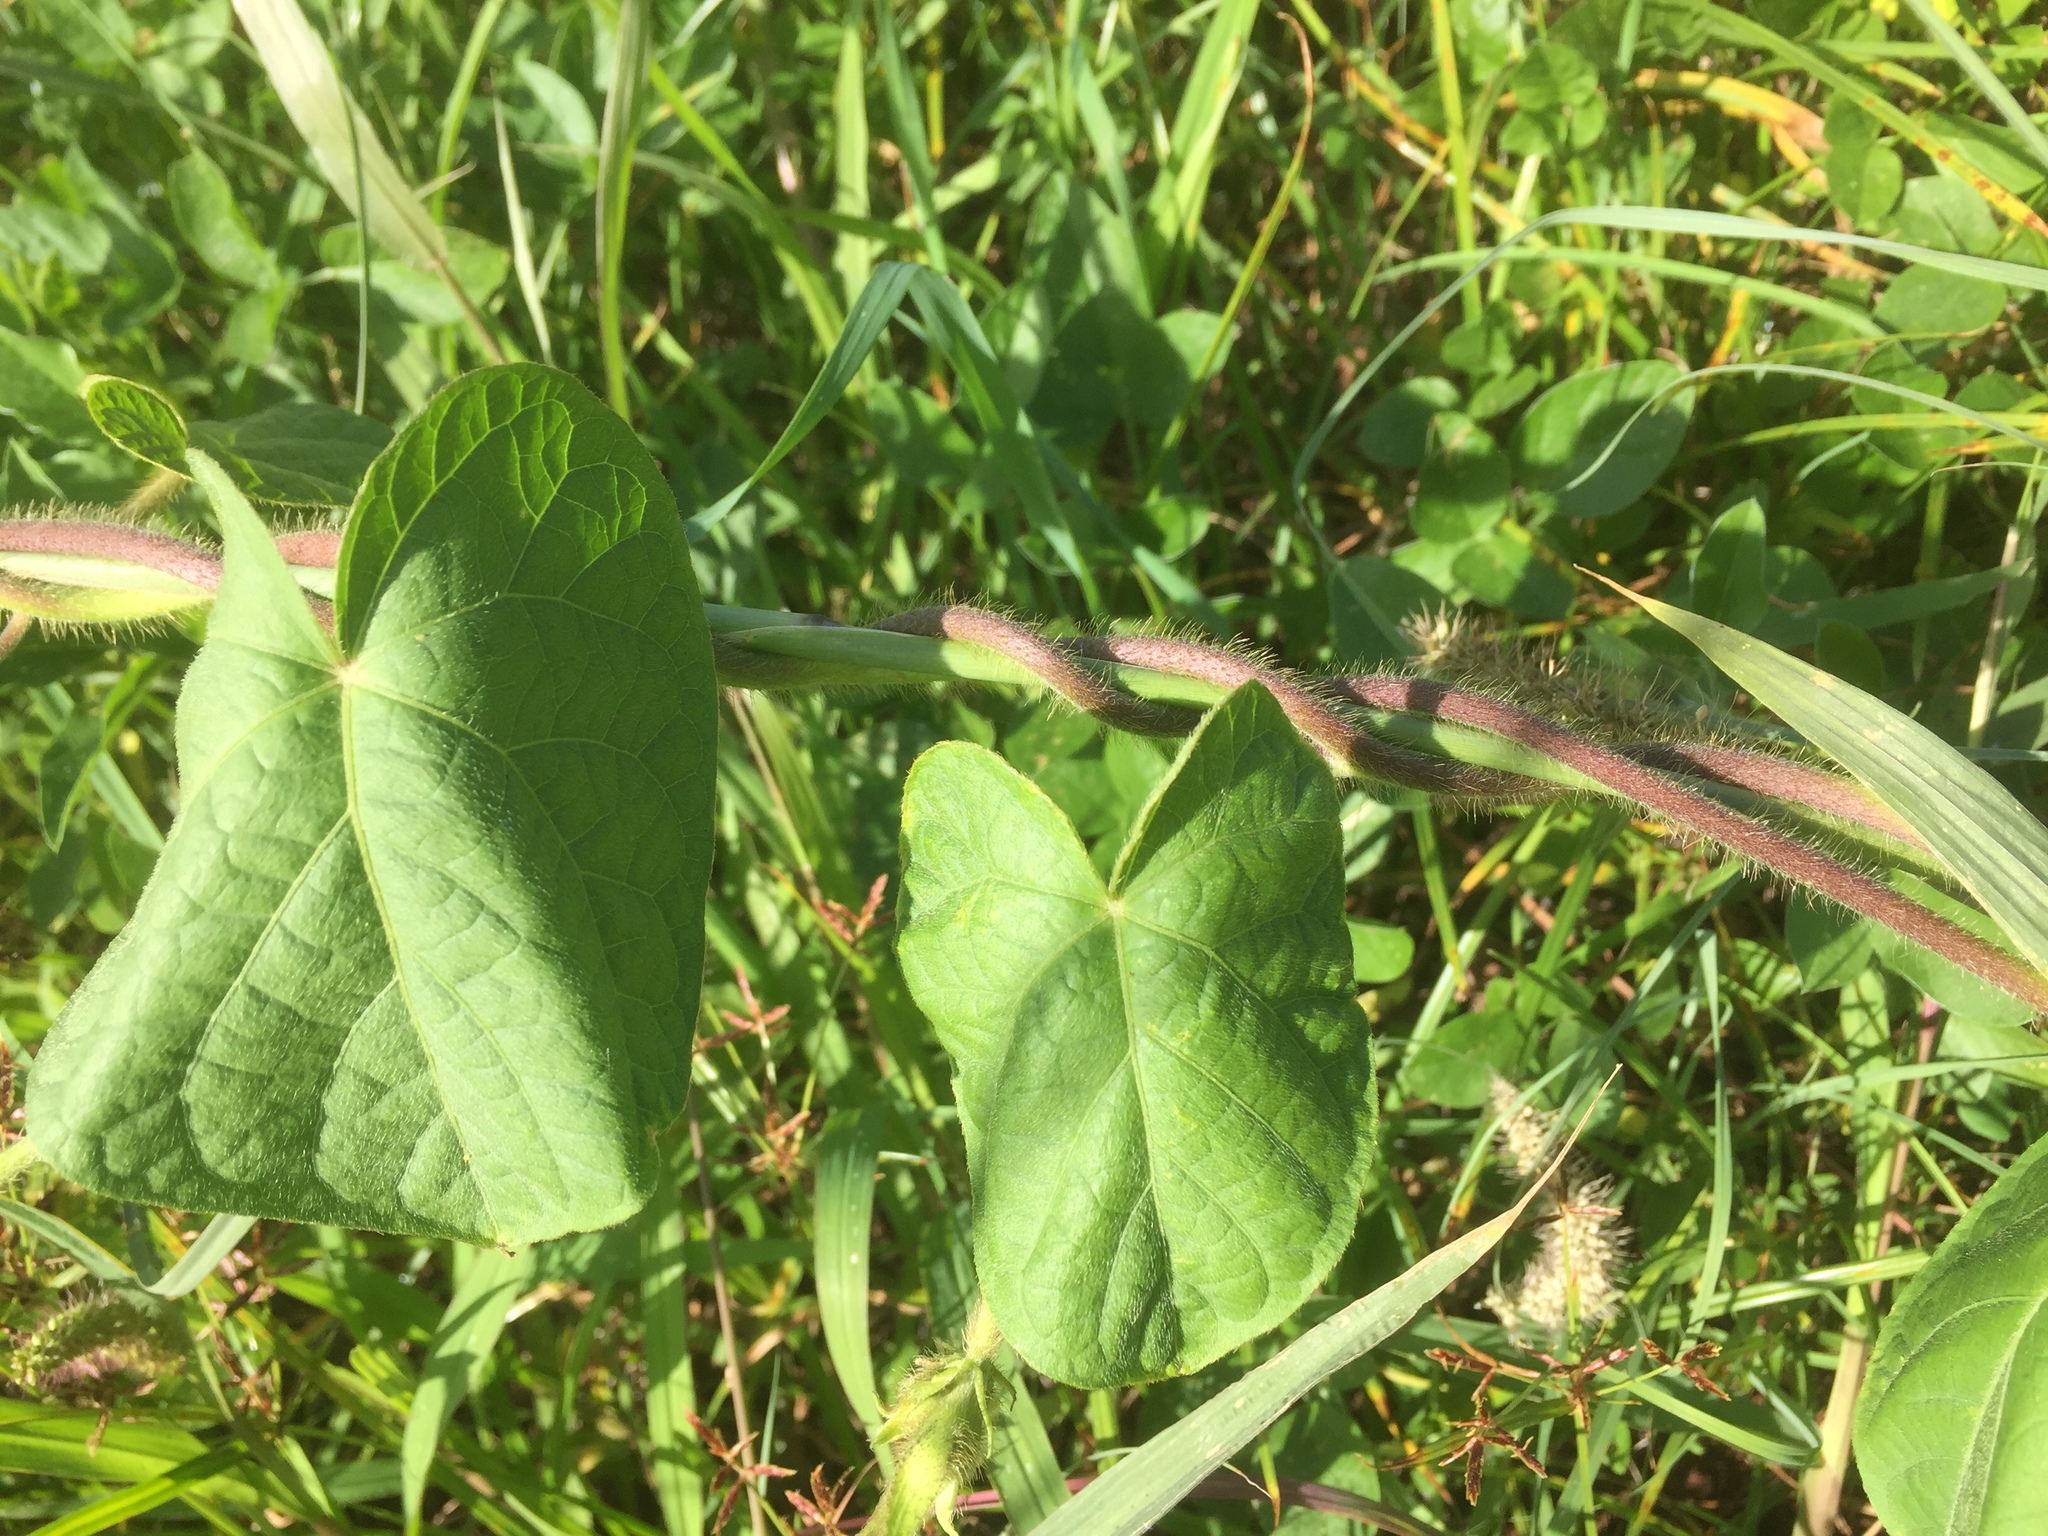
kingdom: Plantae
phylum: Tracheophyta
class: Magnoliopsida
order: Solanales
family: Convolvulaceae
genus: Ipomoea
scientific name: Ipomoea purpurea
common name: Common morning-glory
